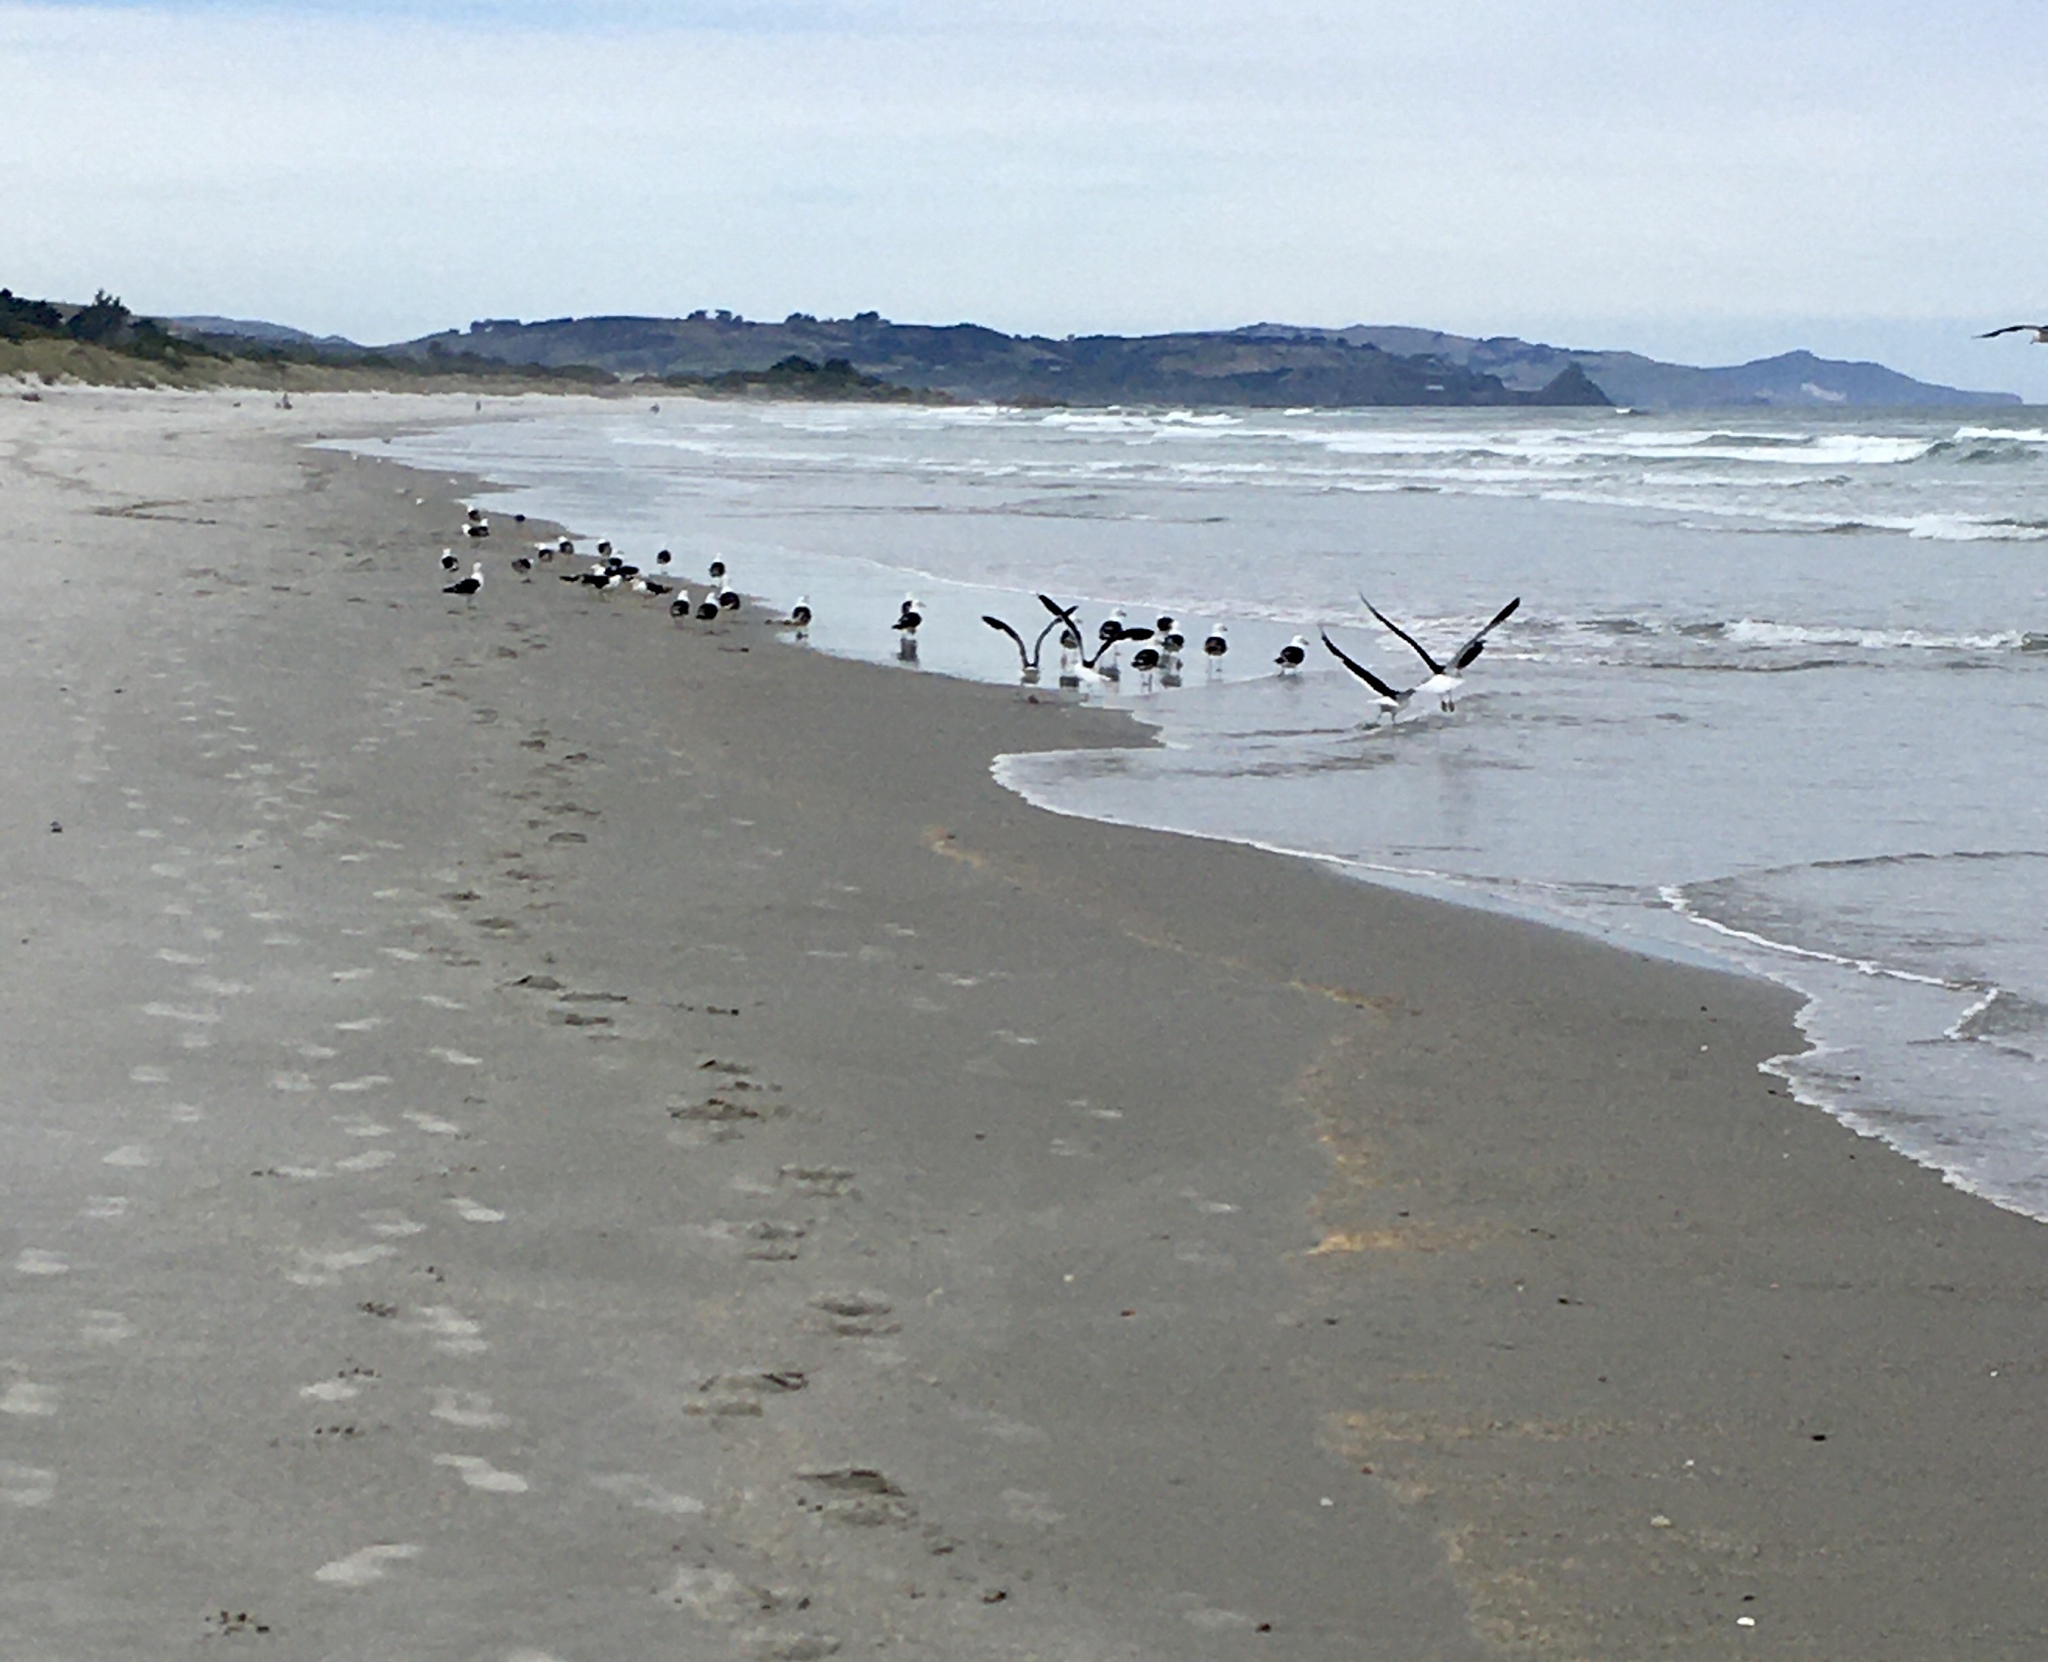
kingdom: Animalia
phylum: Chordata
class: Aves
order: Charadriiformes
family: Laridae
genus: Larus
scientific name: Larus dominicanus
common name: Kelp gull
